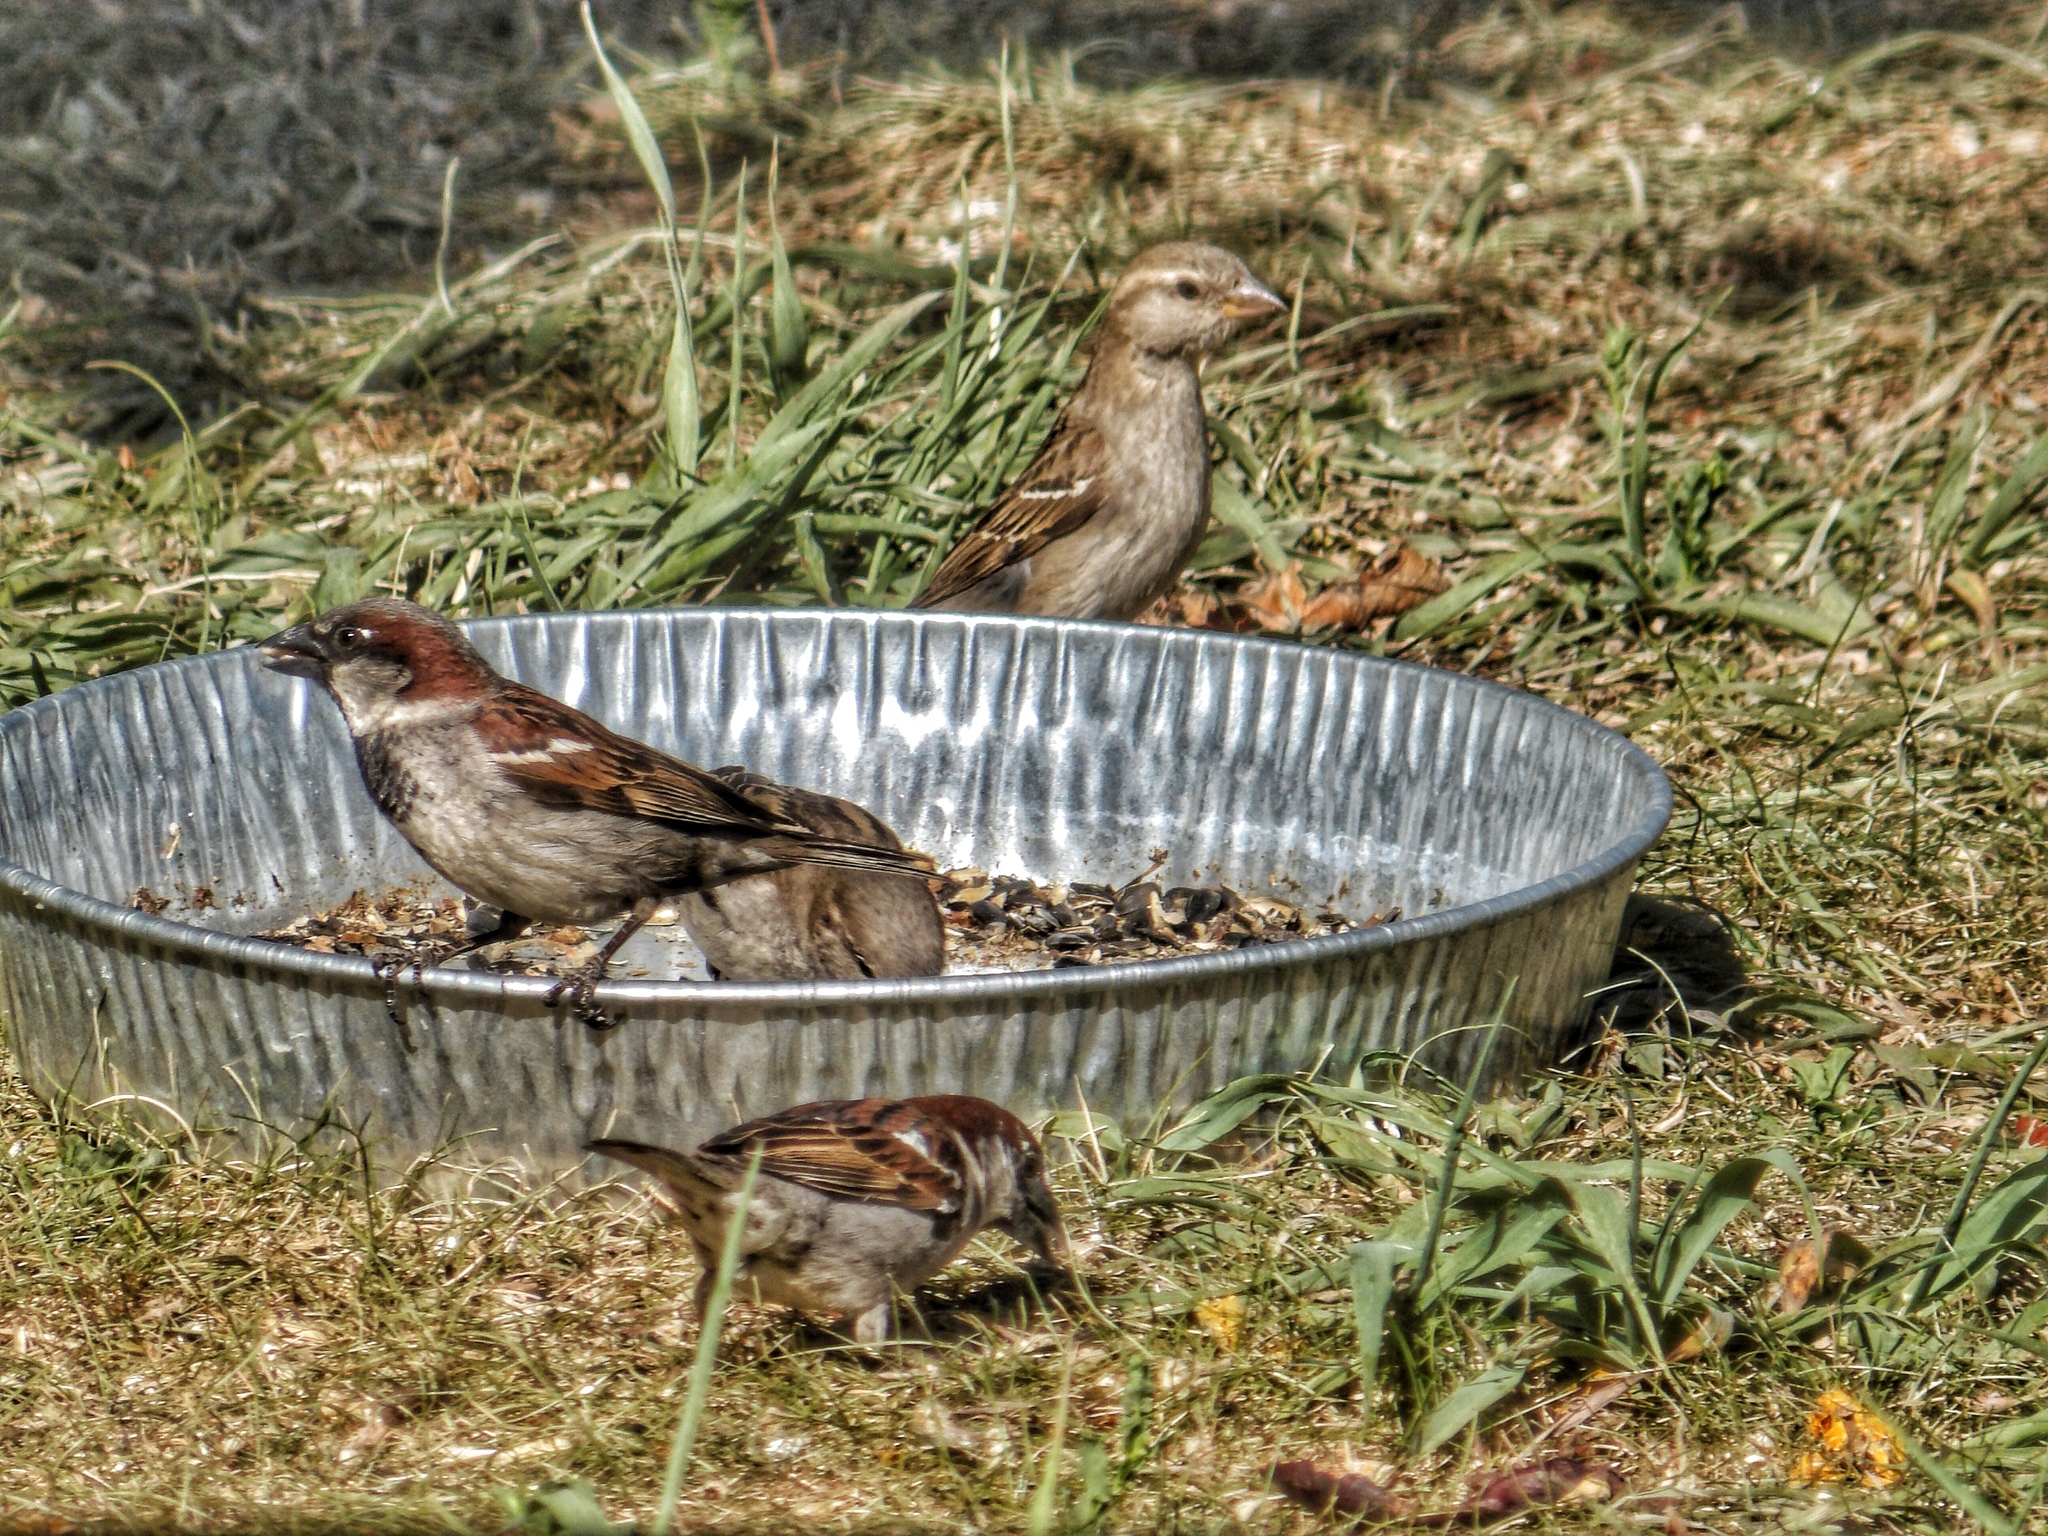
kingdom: Animalia
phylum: Chordata
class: Aves
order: Passeriformes
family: Passeridae
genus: Passer
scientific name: Passer domesticus
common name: House sparrow
